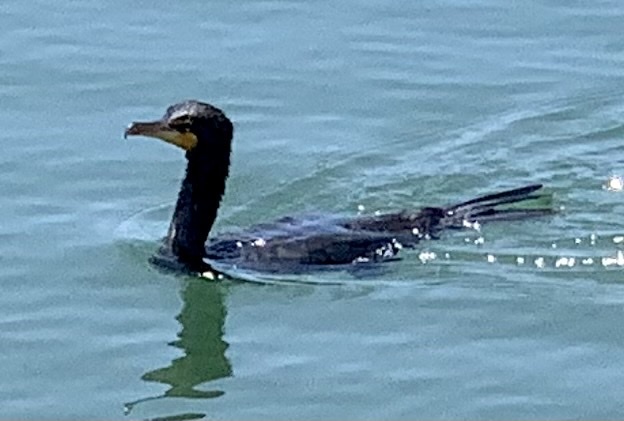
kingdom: Animalia
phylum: Chordata
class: Aves
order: Suliformes
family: Phalacrocoracidae
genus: Phalacrocorax
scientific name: Phalacrocorax auritus
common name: Double-crested cormorant
